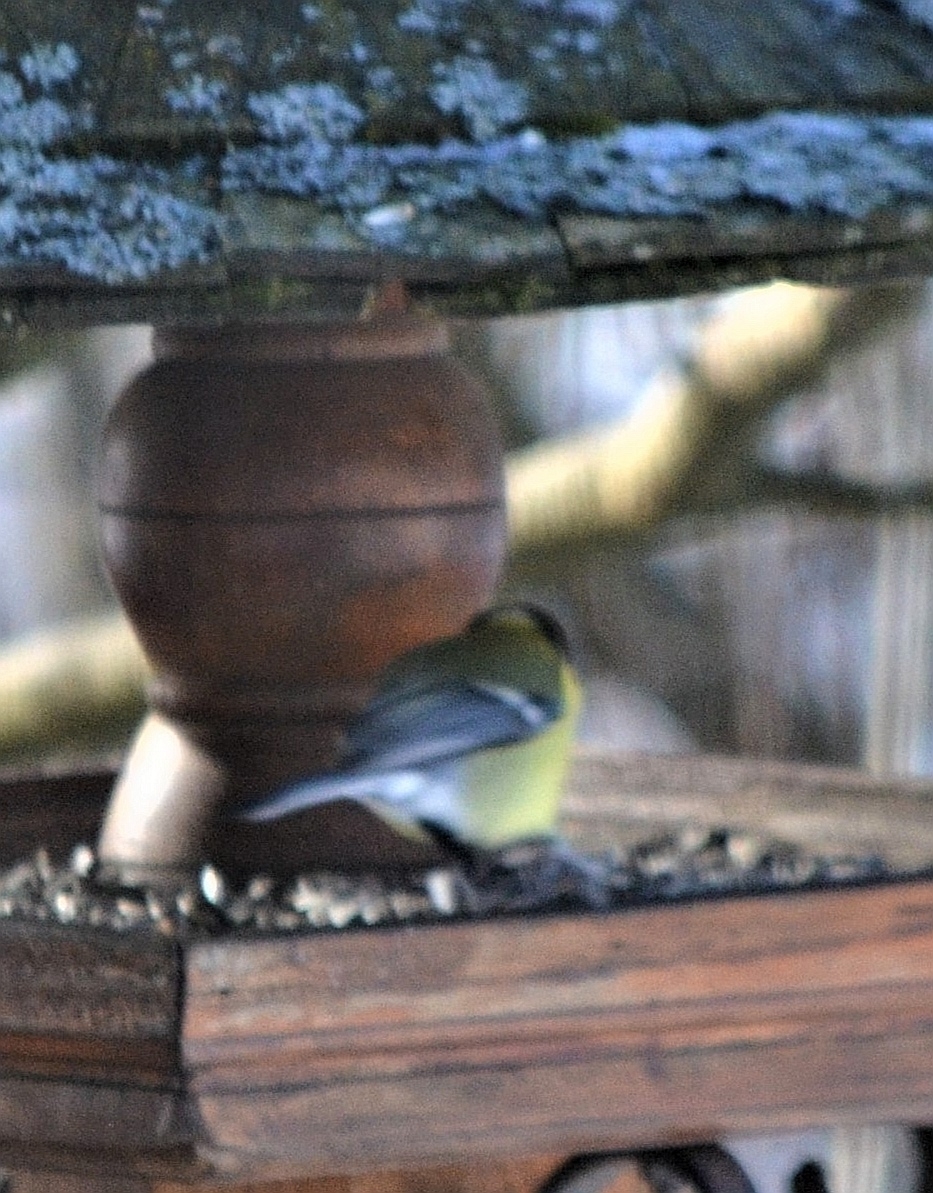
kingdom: Animalia
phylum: Chordata
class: Aves
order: Passeriformes
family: Paridae
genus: Parus
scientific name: Parus major
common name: Great tit
